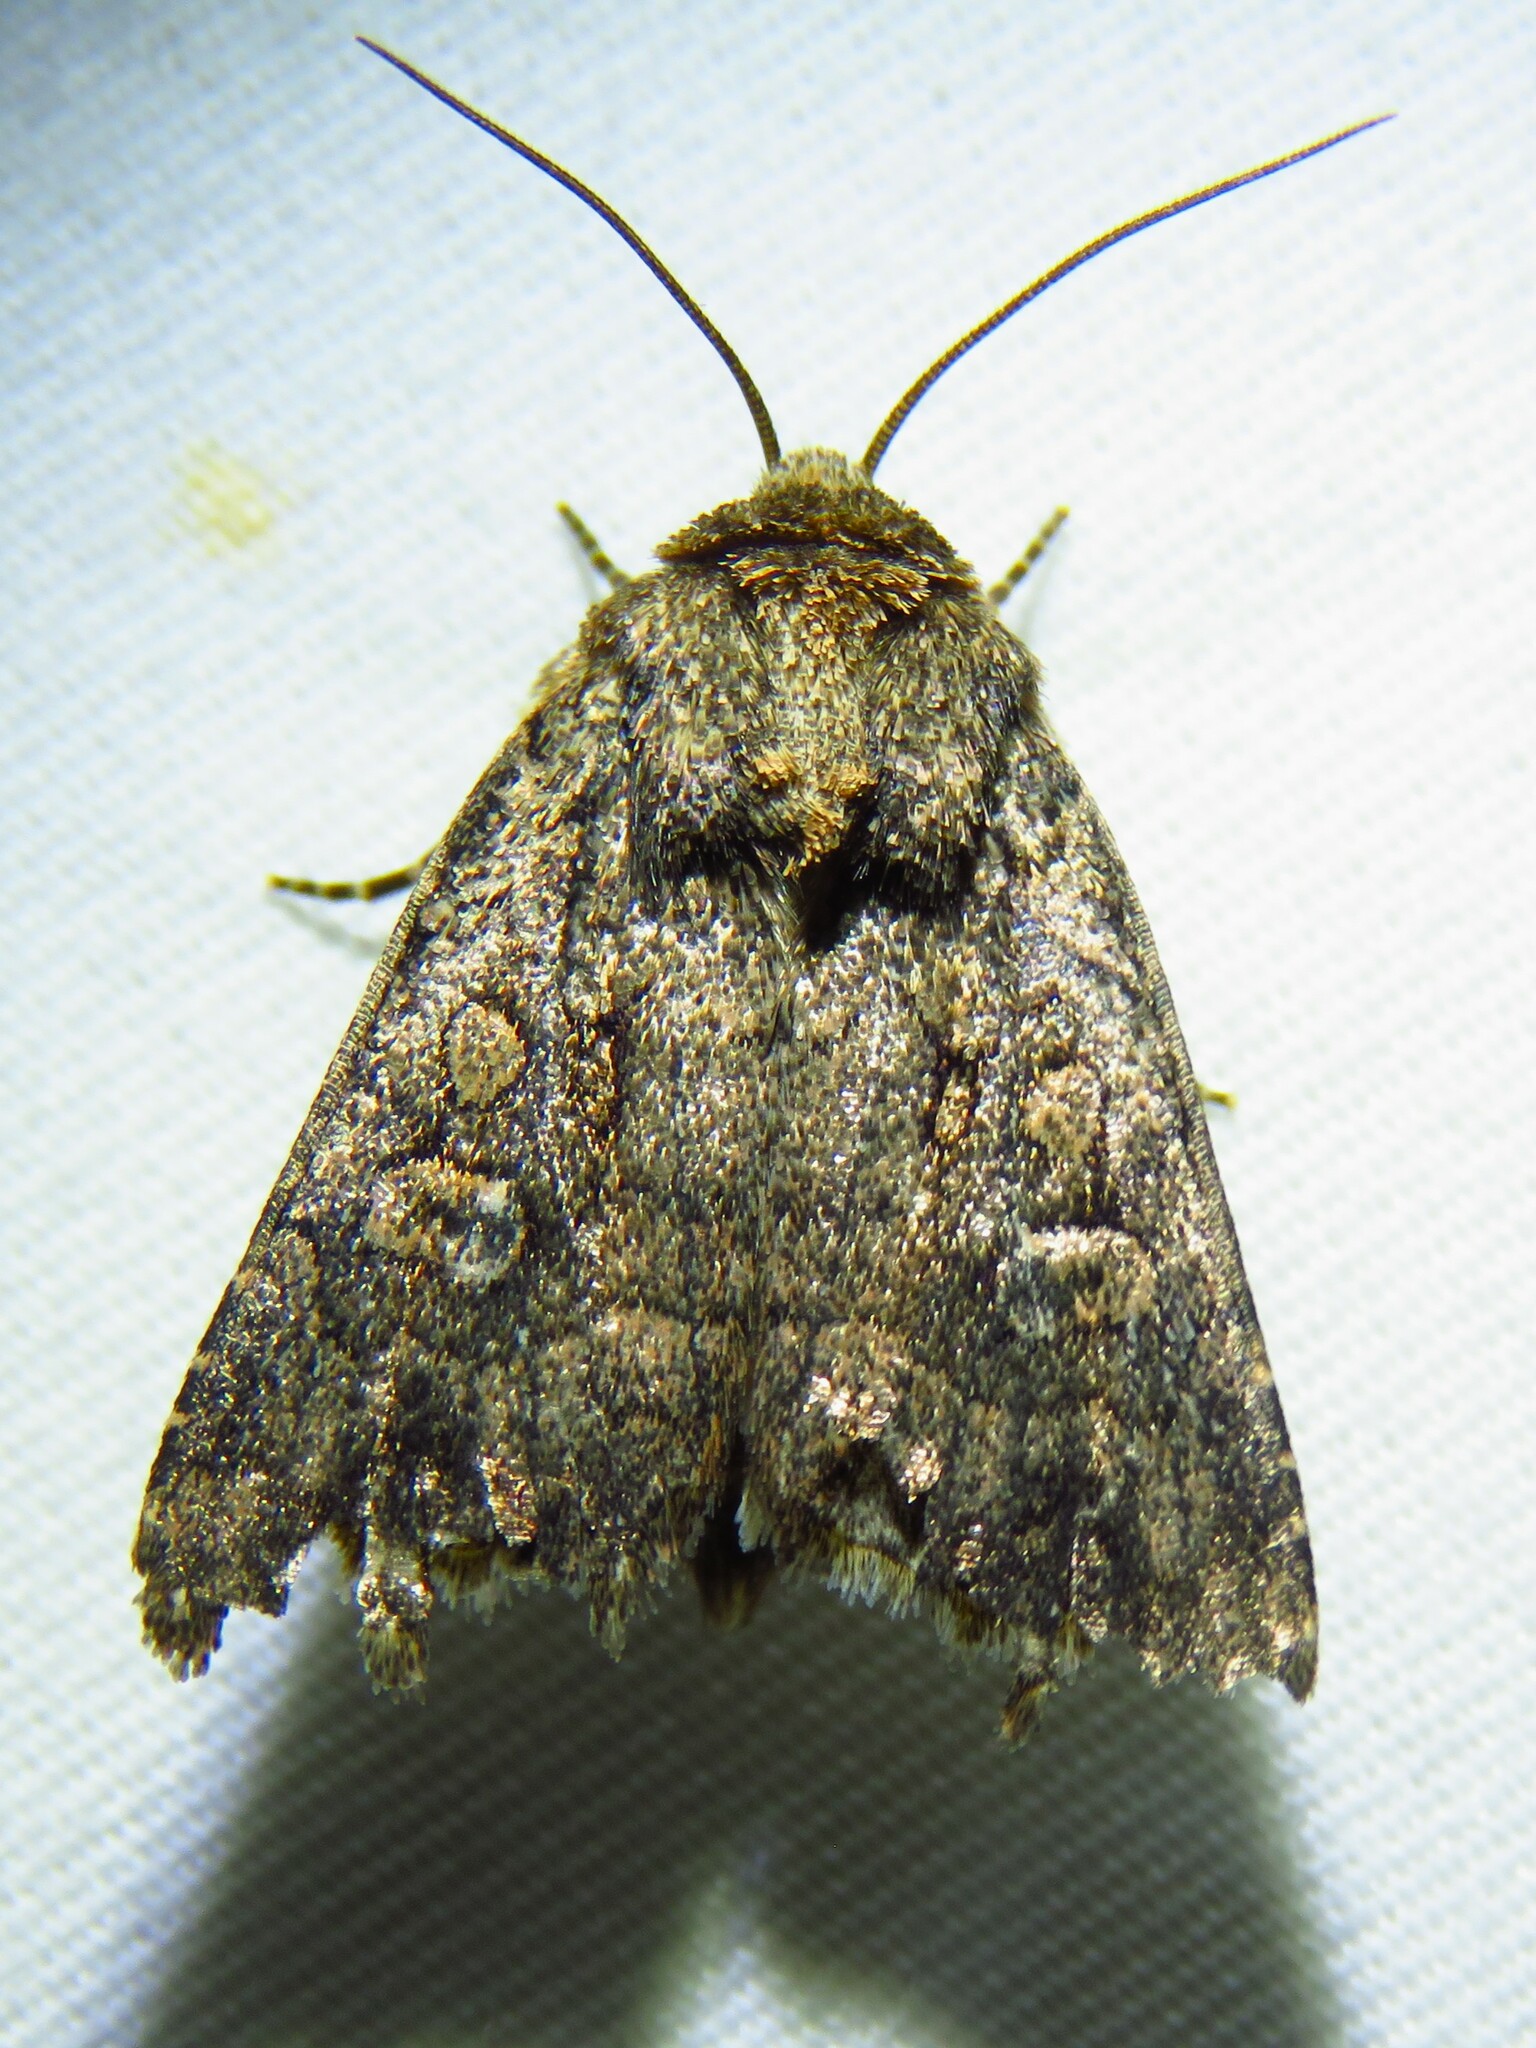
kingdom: Animalia
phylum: Arthropoda
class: Insecta
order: Lepidoptera
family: Noctuidae
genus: Protorthodes
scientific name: Protorthodes texana
